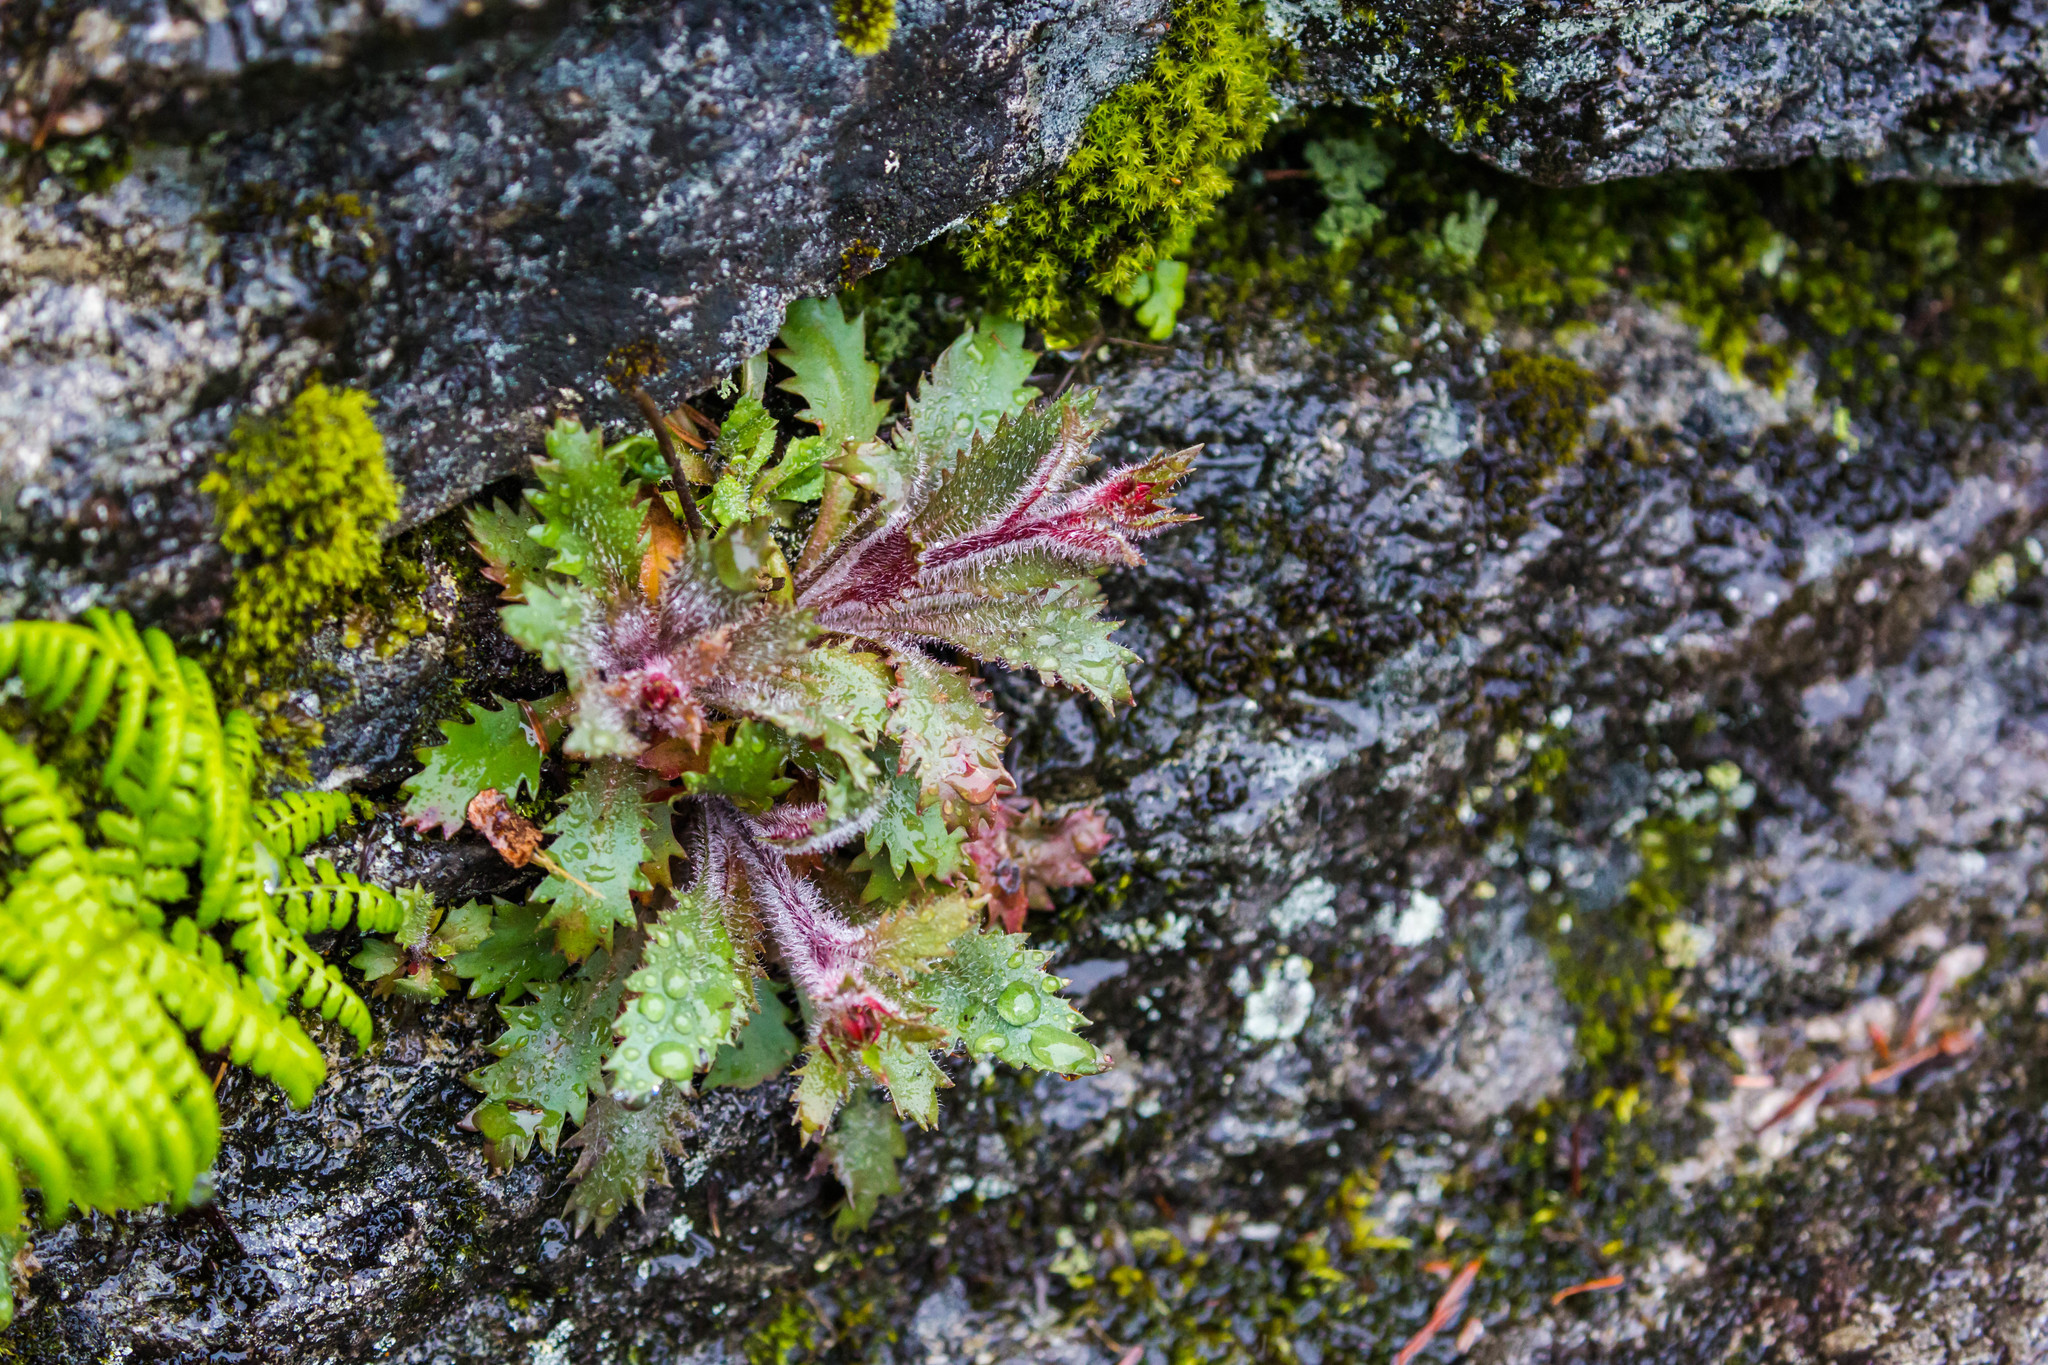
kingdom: Plantae
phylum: Tracheophyta
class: Magnoliopsida
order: Saxifragales
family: Saxifragaceae
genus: Micranthes
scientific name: Micranthes petiolaris
